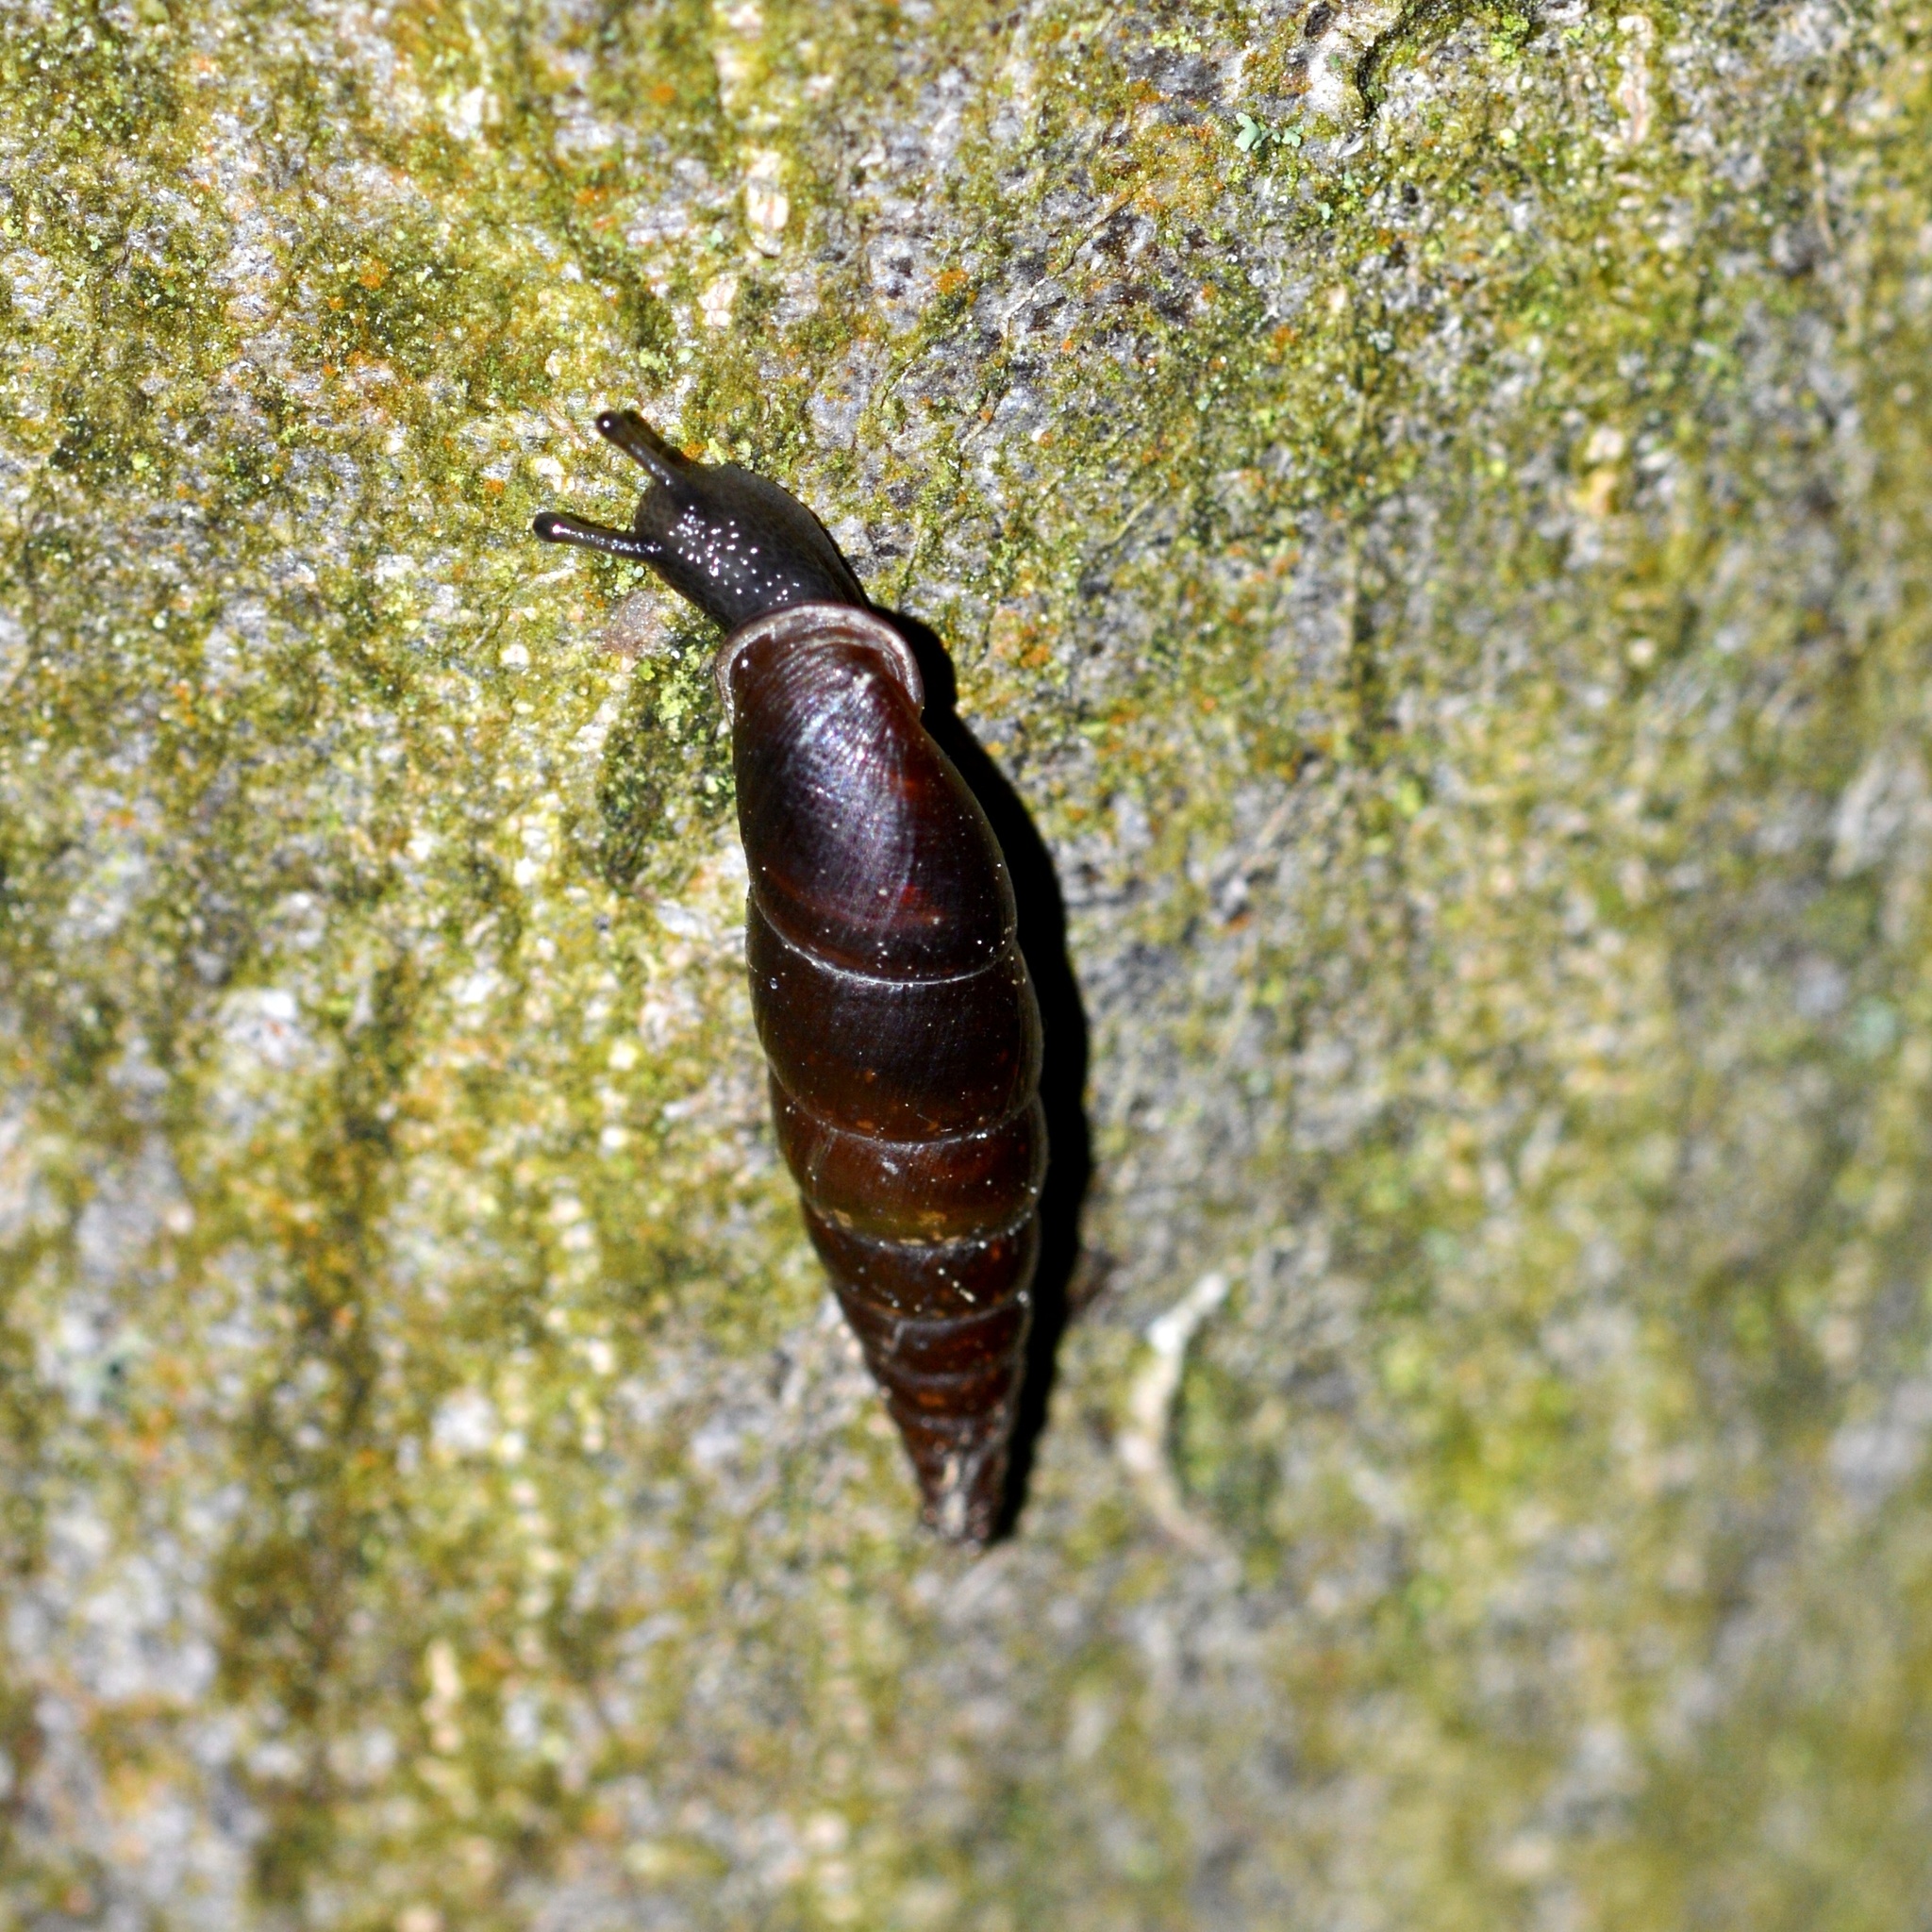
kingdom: Animalia
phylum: Mollusca
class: Gastropoda
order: Stylommatophora
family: Clausiliidae
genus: Cochlodina
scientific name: Cochlodina laminata
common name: Plaited door snail
